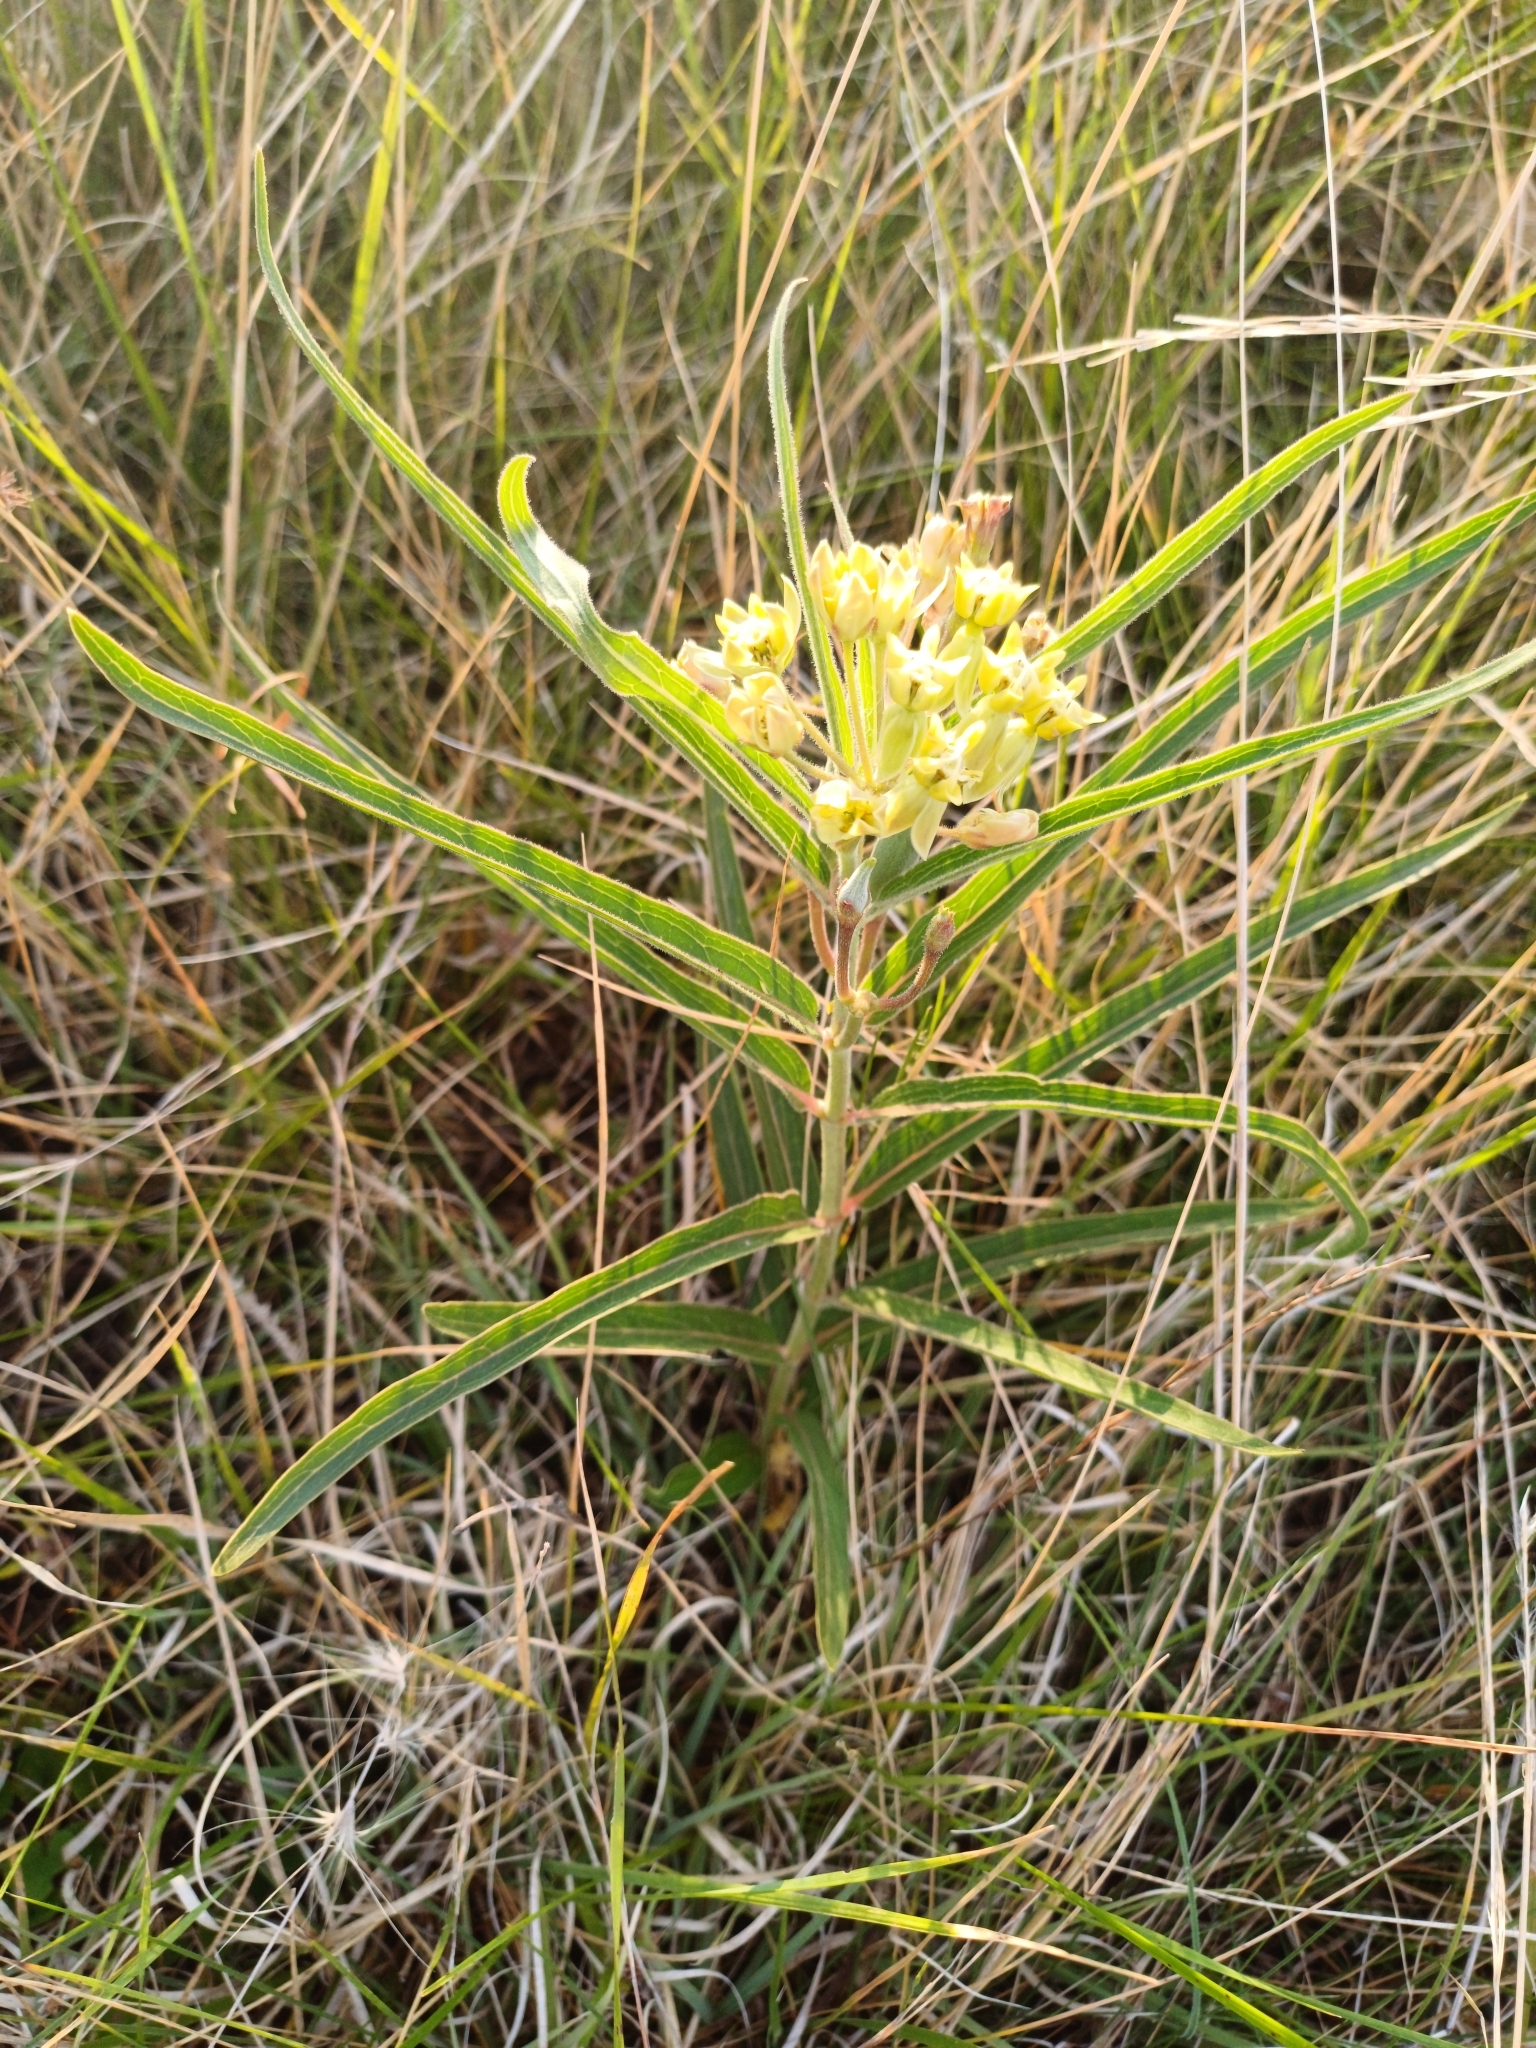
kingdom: Plantae
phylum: Tracheophyta
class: Magnoliopsida
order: Gentianales
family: Apocynaceae
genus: Asclepias
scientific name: Asclepias mellodora
